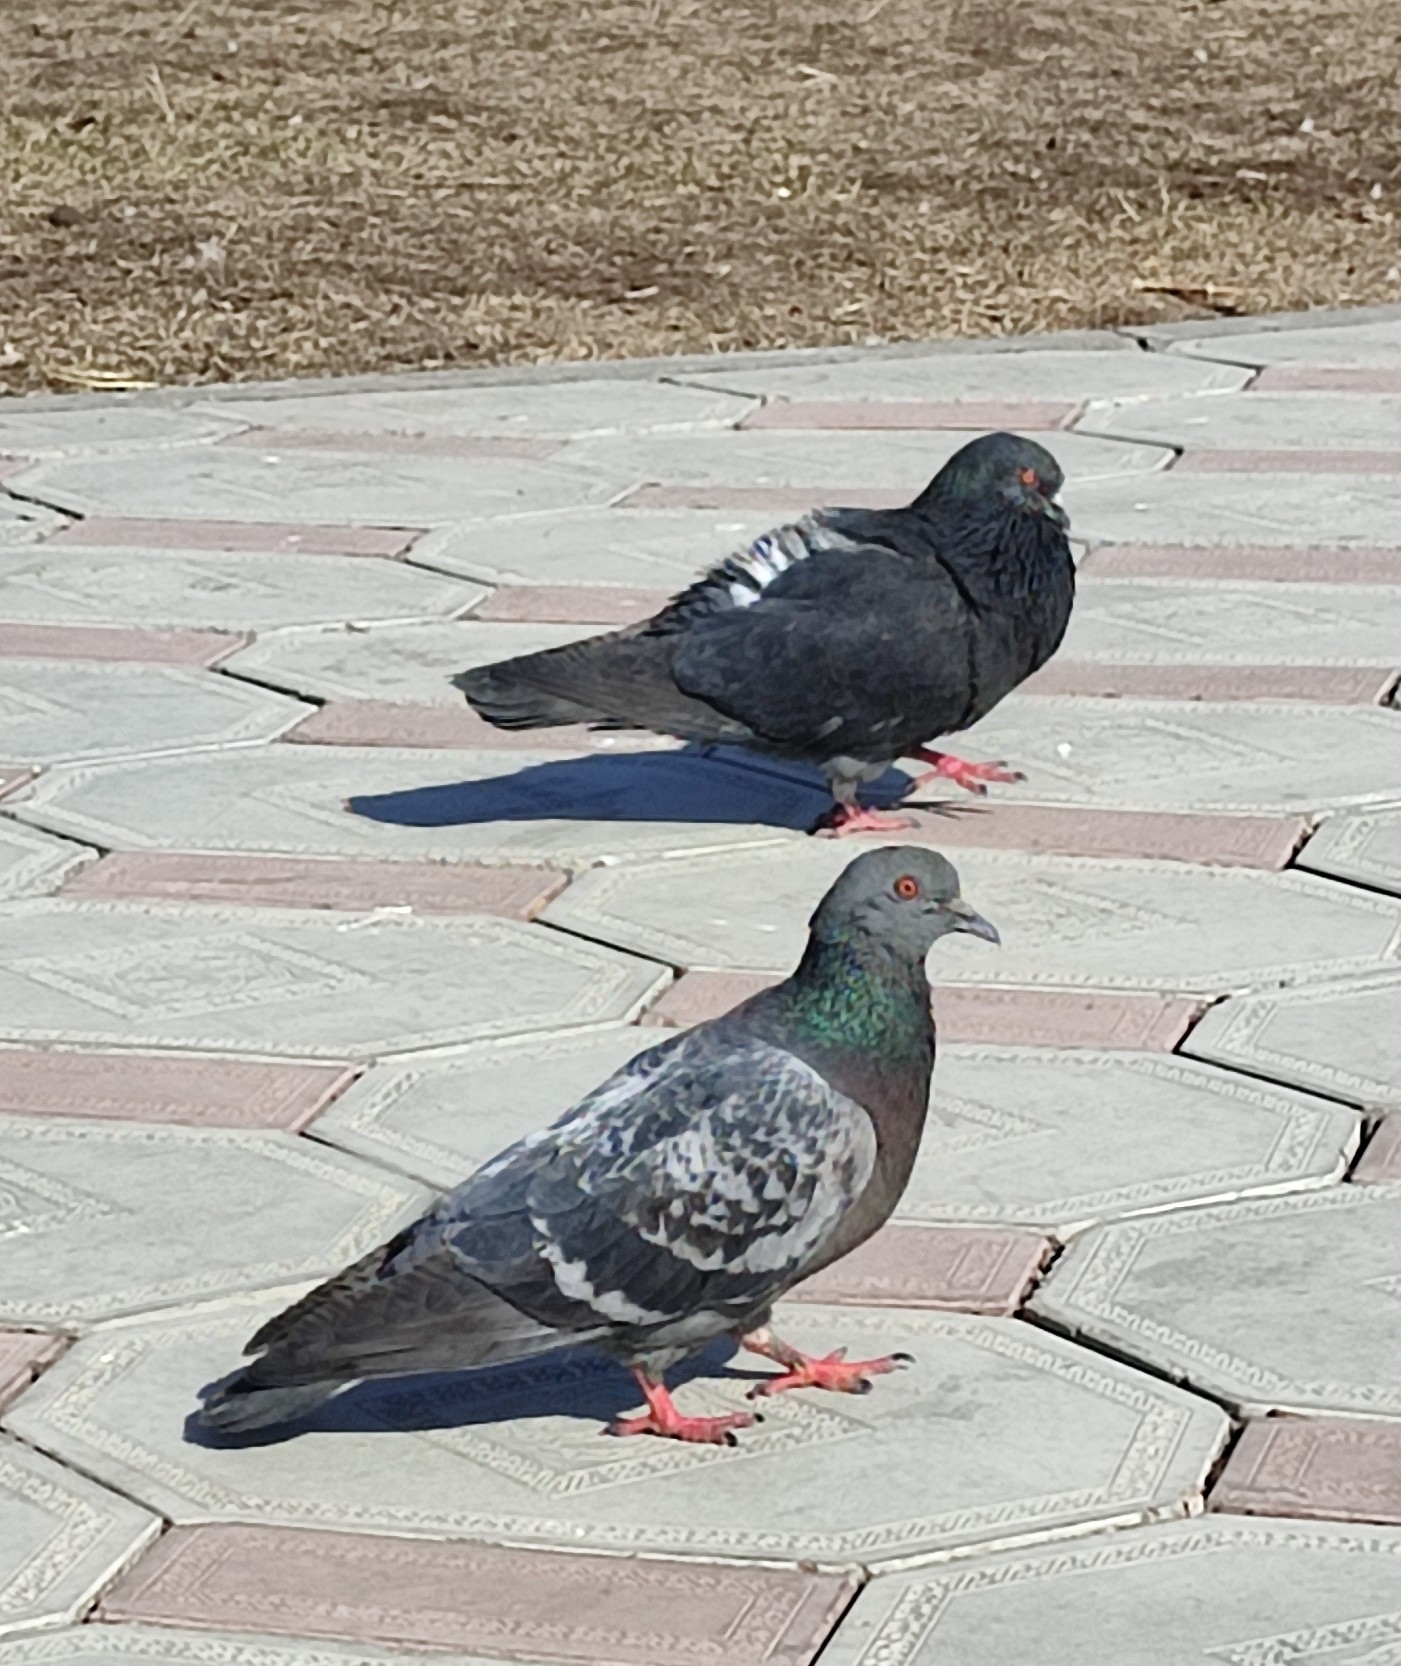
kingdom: Animalia
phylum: Chordata
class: Aves
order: Columbiformes
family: Columbidae
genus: Columba
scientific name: Columba livia
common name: Rock pigeon
